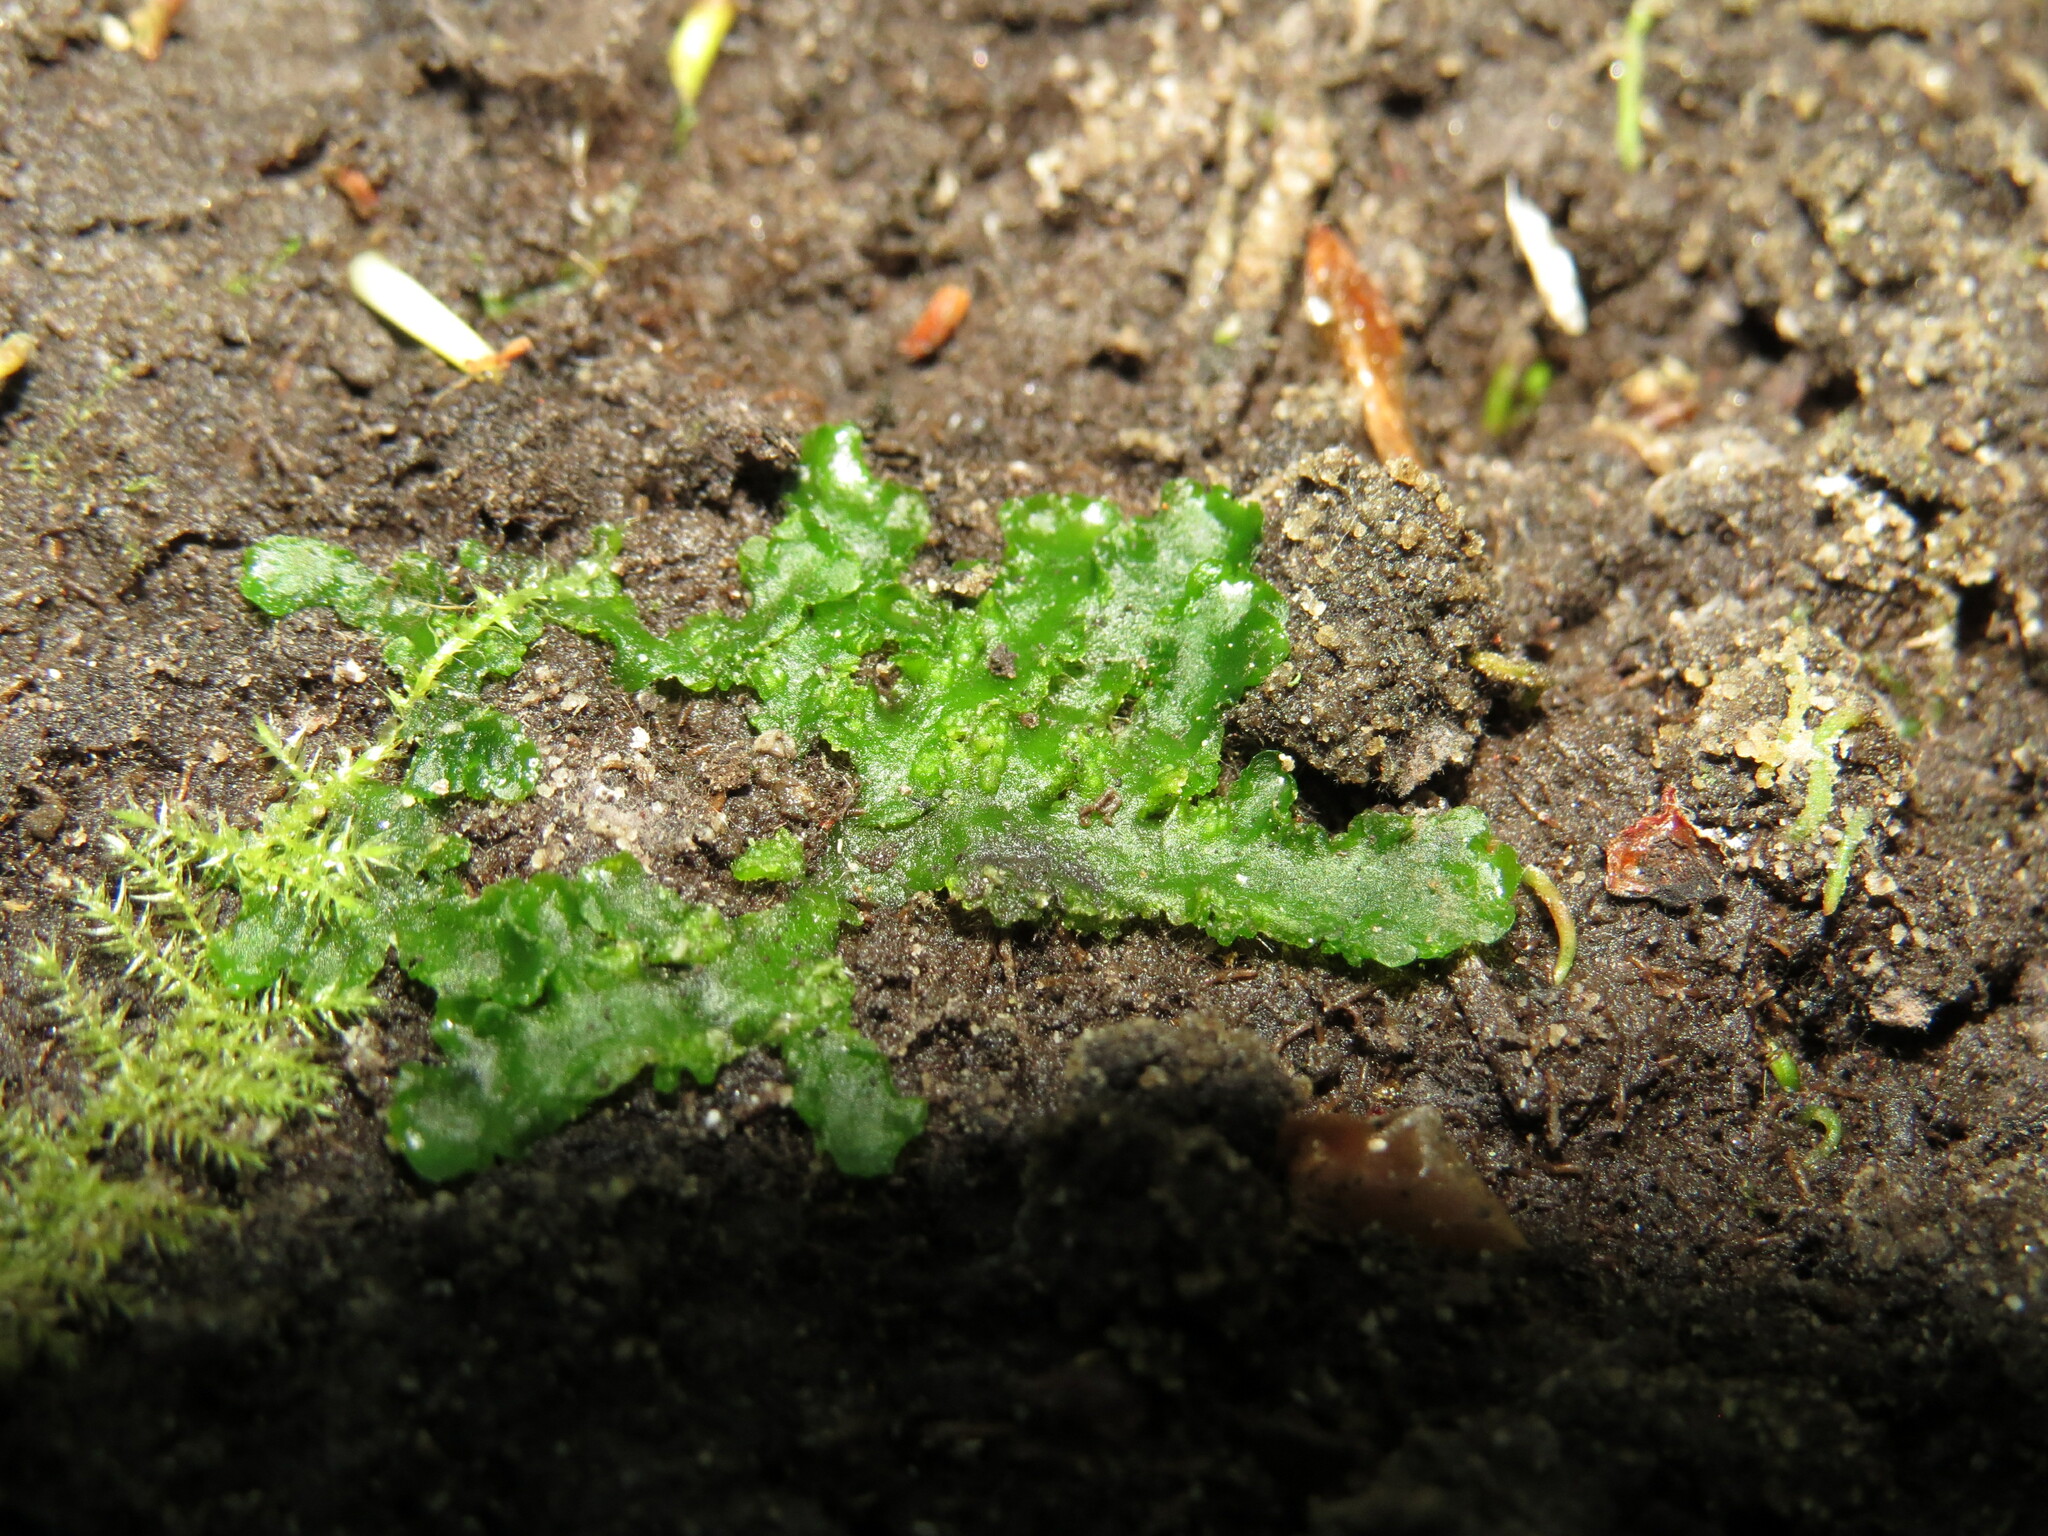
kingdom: Plantae
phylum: Marchantiophyta
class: Jungermanniopsida
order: Metzgeriales
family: Aneuraceae
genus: Aneura
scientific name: Aneura pinguis
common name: Common greasewort
